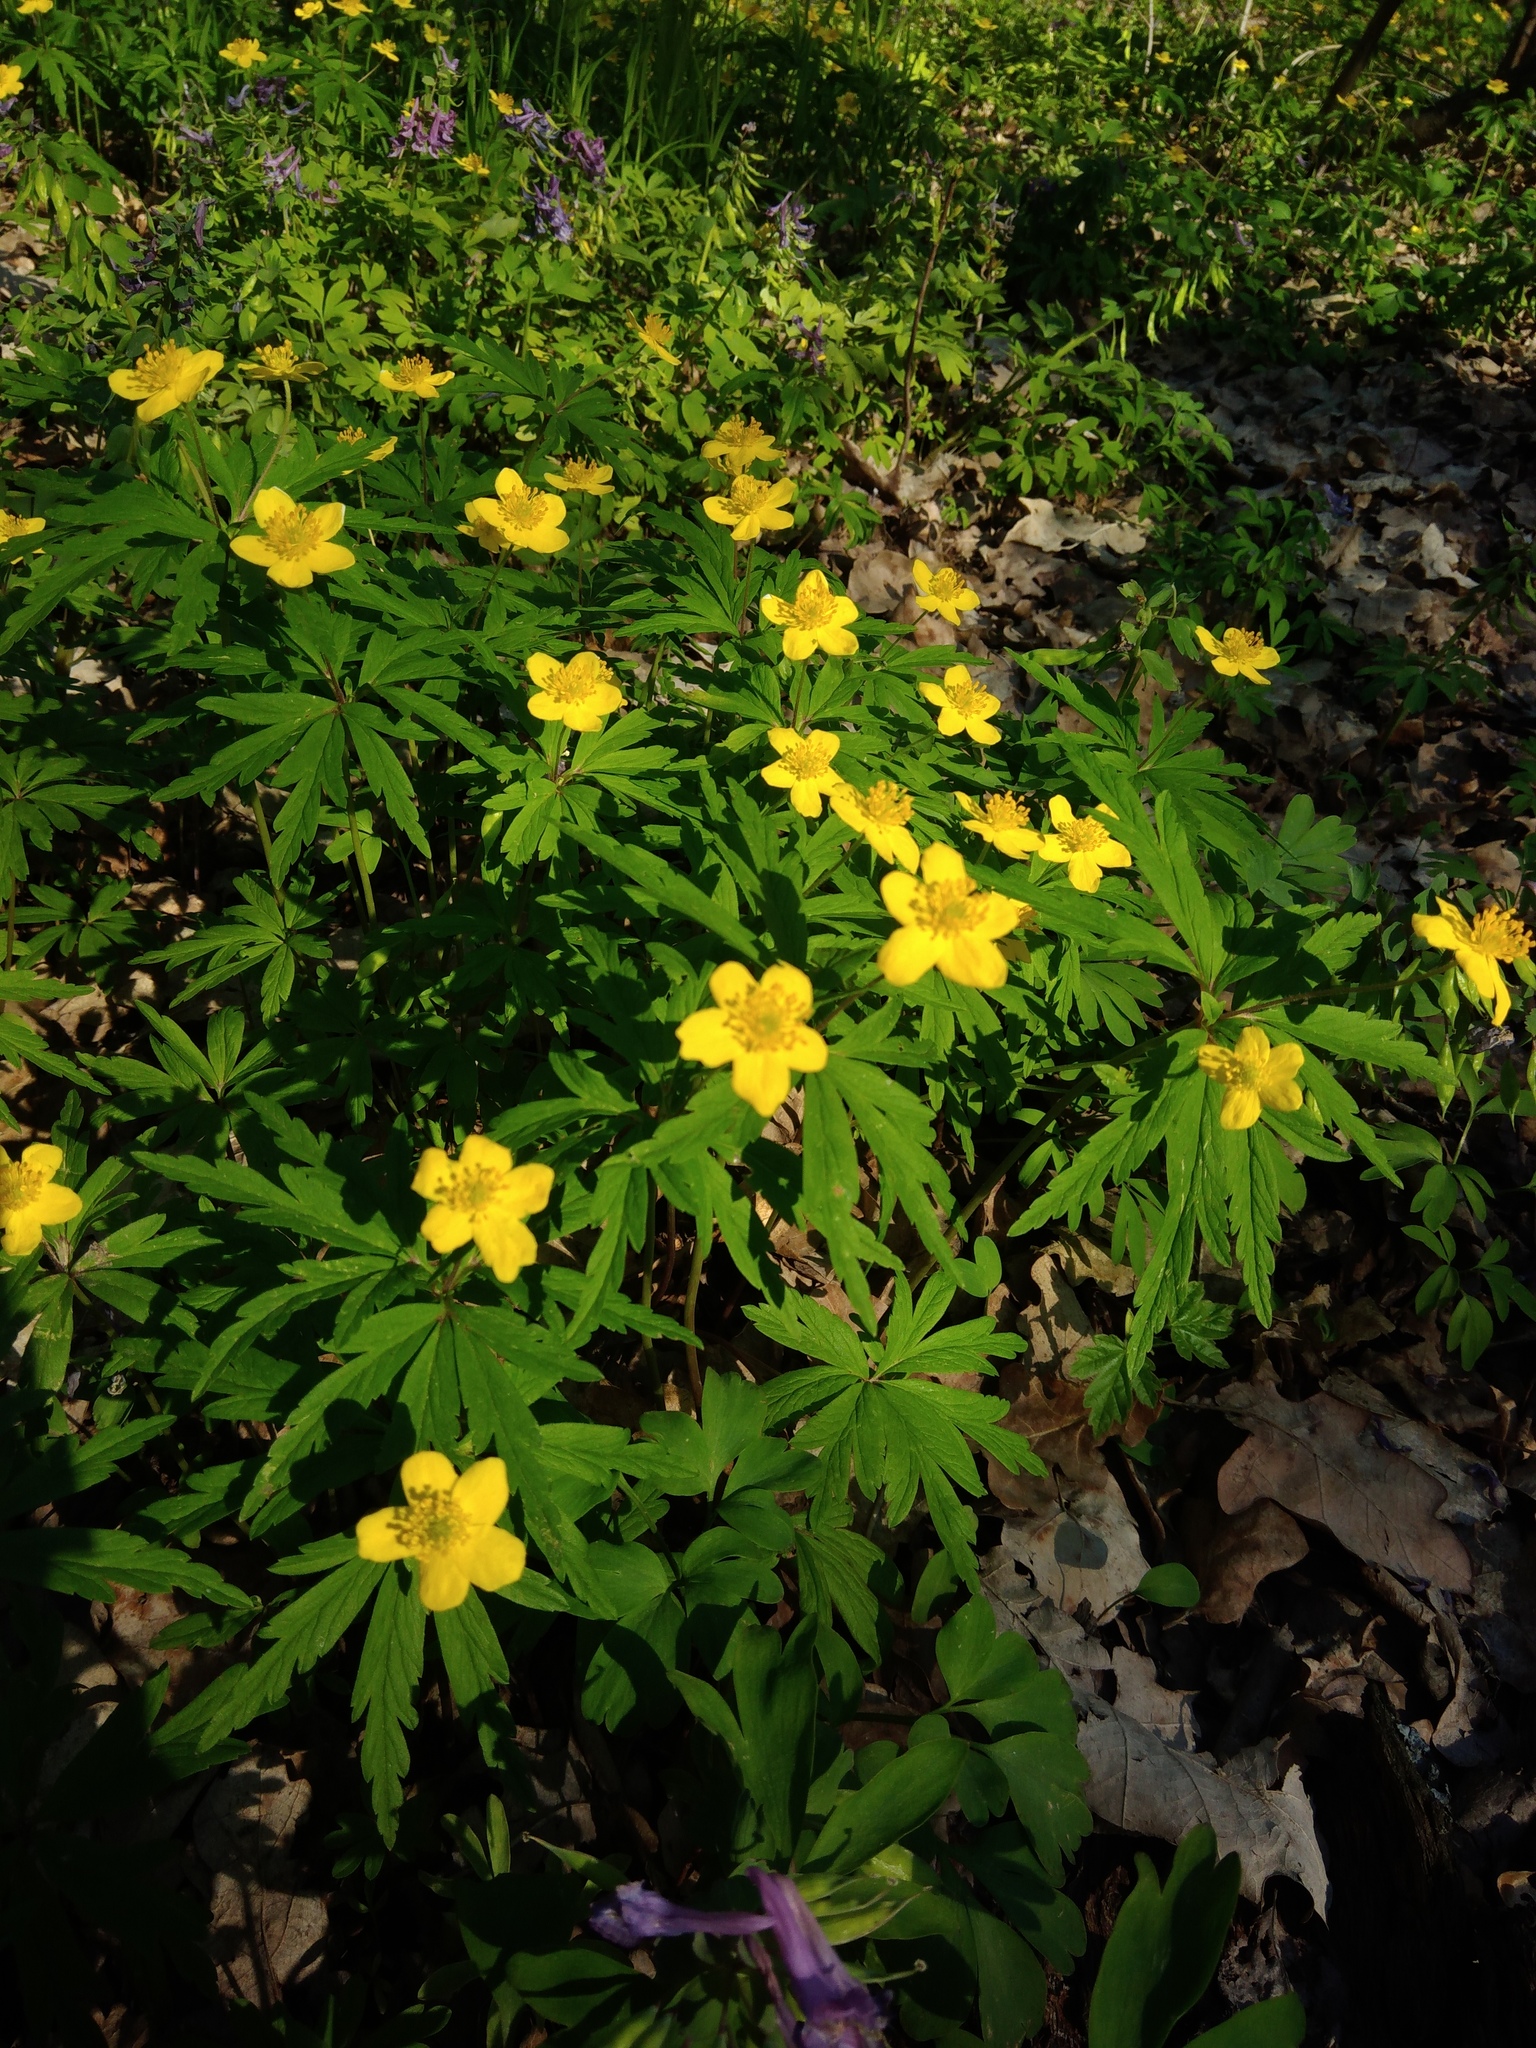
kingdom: Plantae
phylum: Tracheophyta
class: Magnoliopsida
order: Ranunculales
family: Ranunculaceae
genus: Anemone
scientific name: Anemone ranunculoides
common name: Yellow anemone
